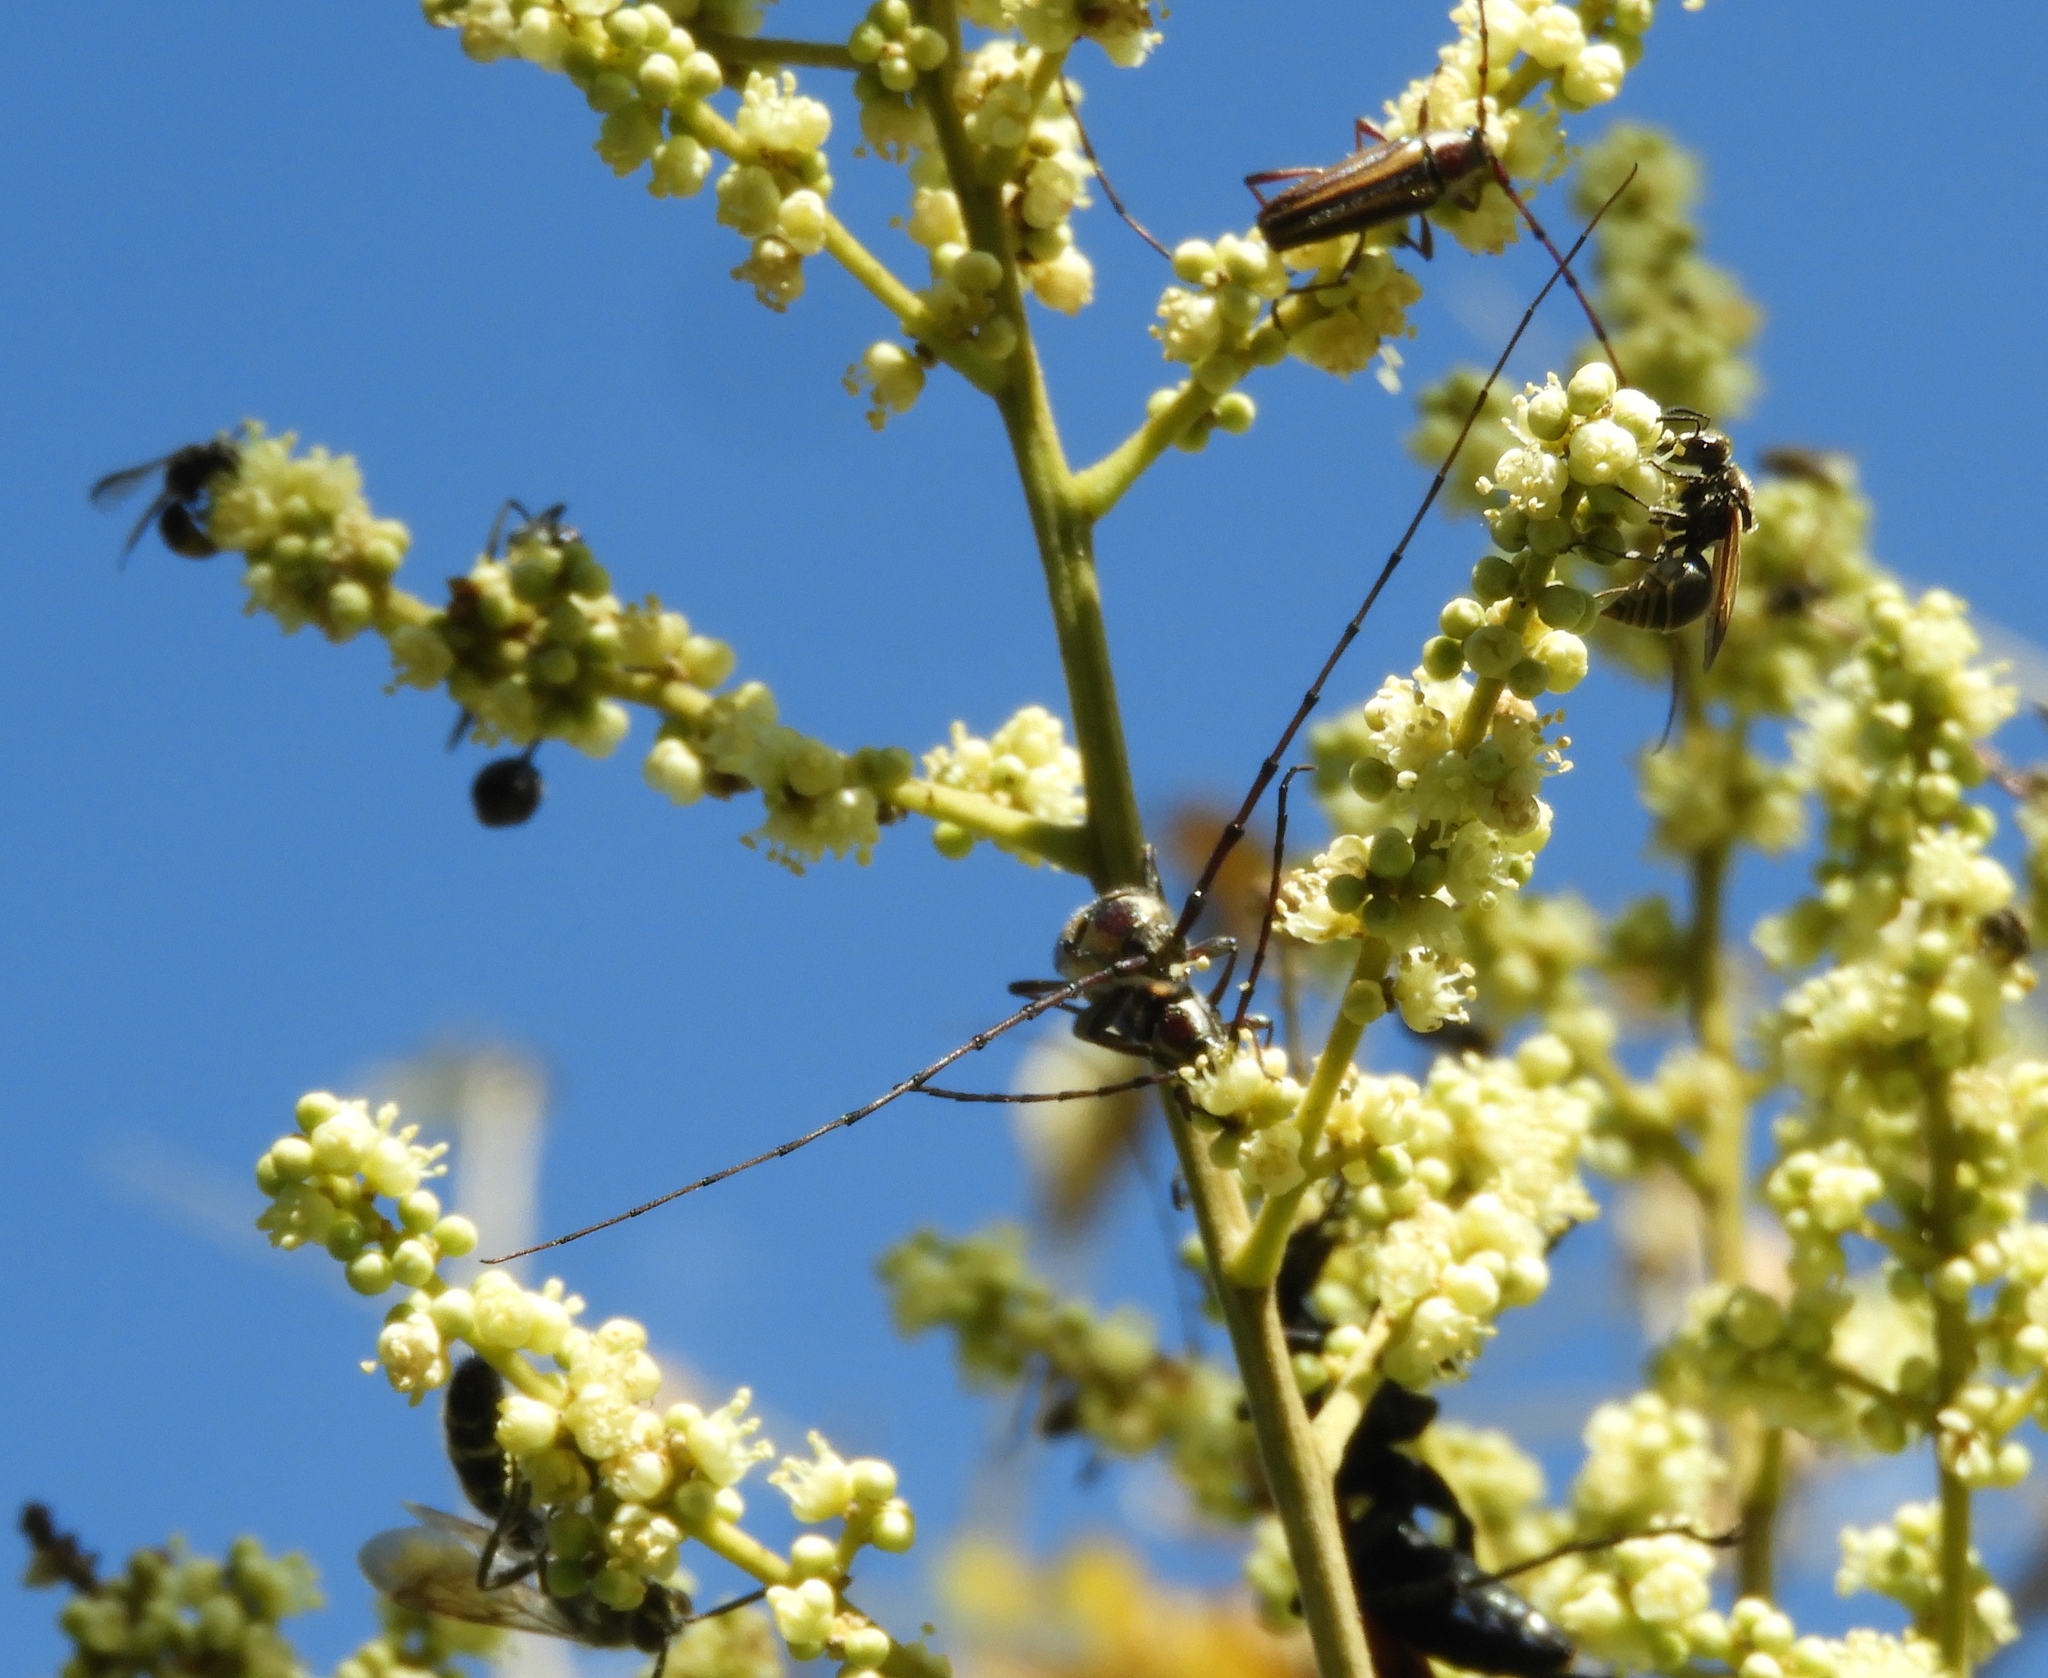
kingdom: Animalia
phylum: Arthropoda
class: Insecta
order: Coleoptera
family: Cerambycidae
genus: Sphaenothecus
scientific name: Sphaenothecus maccartyi
